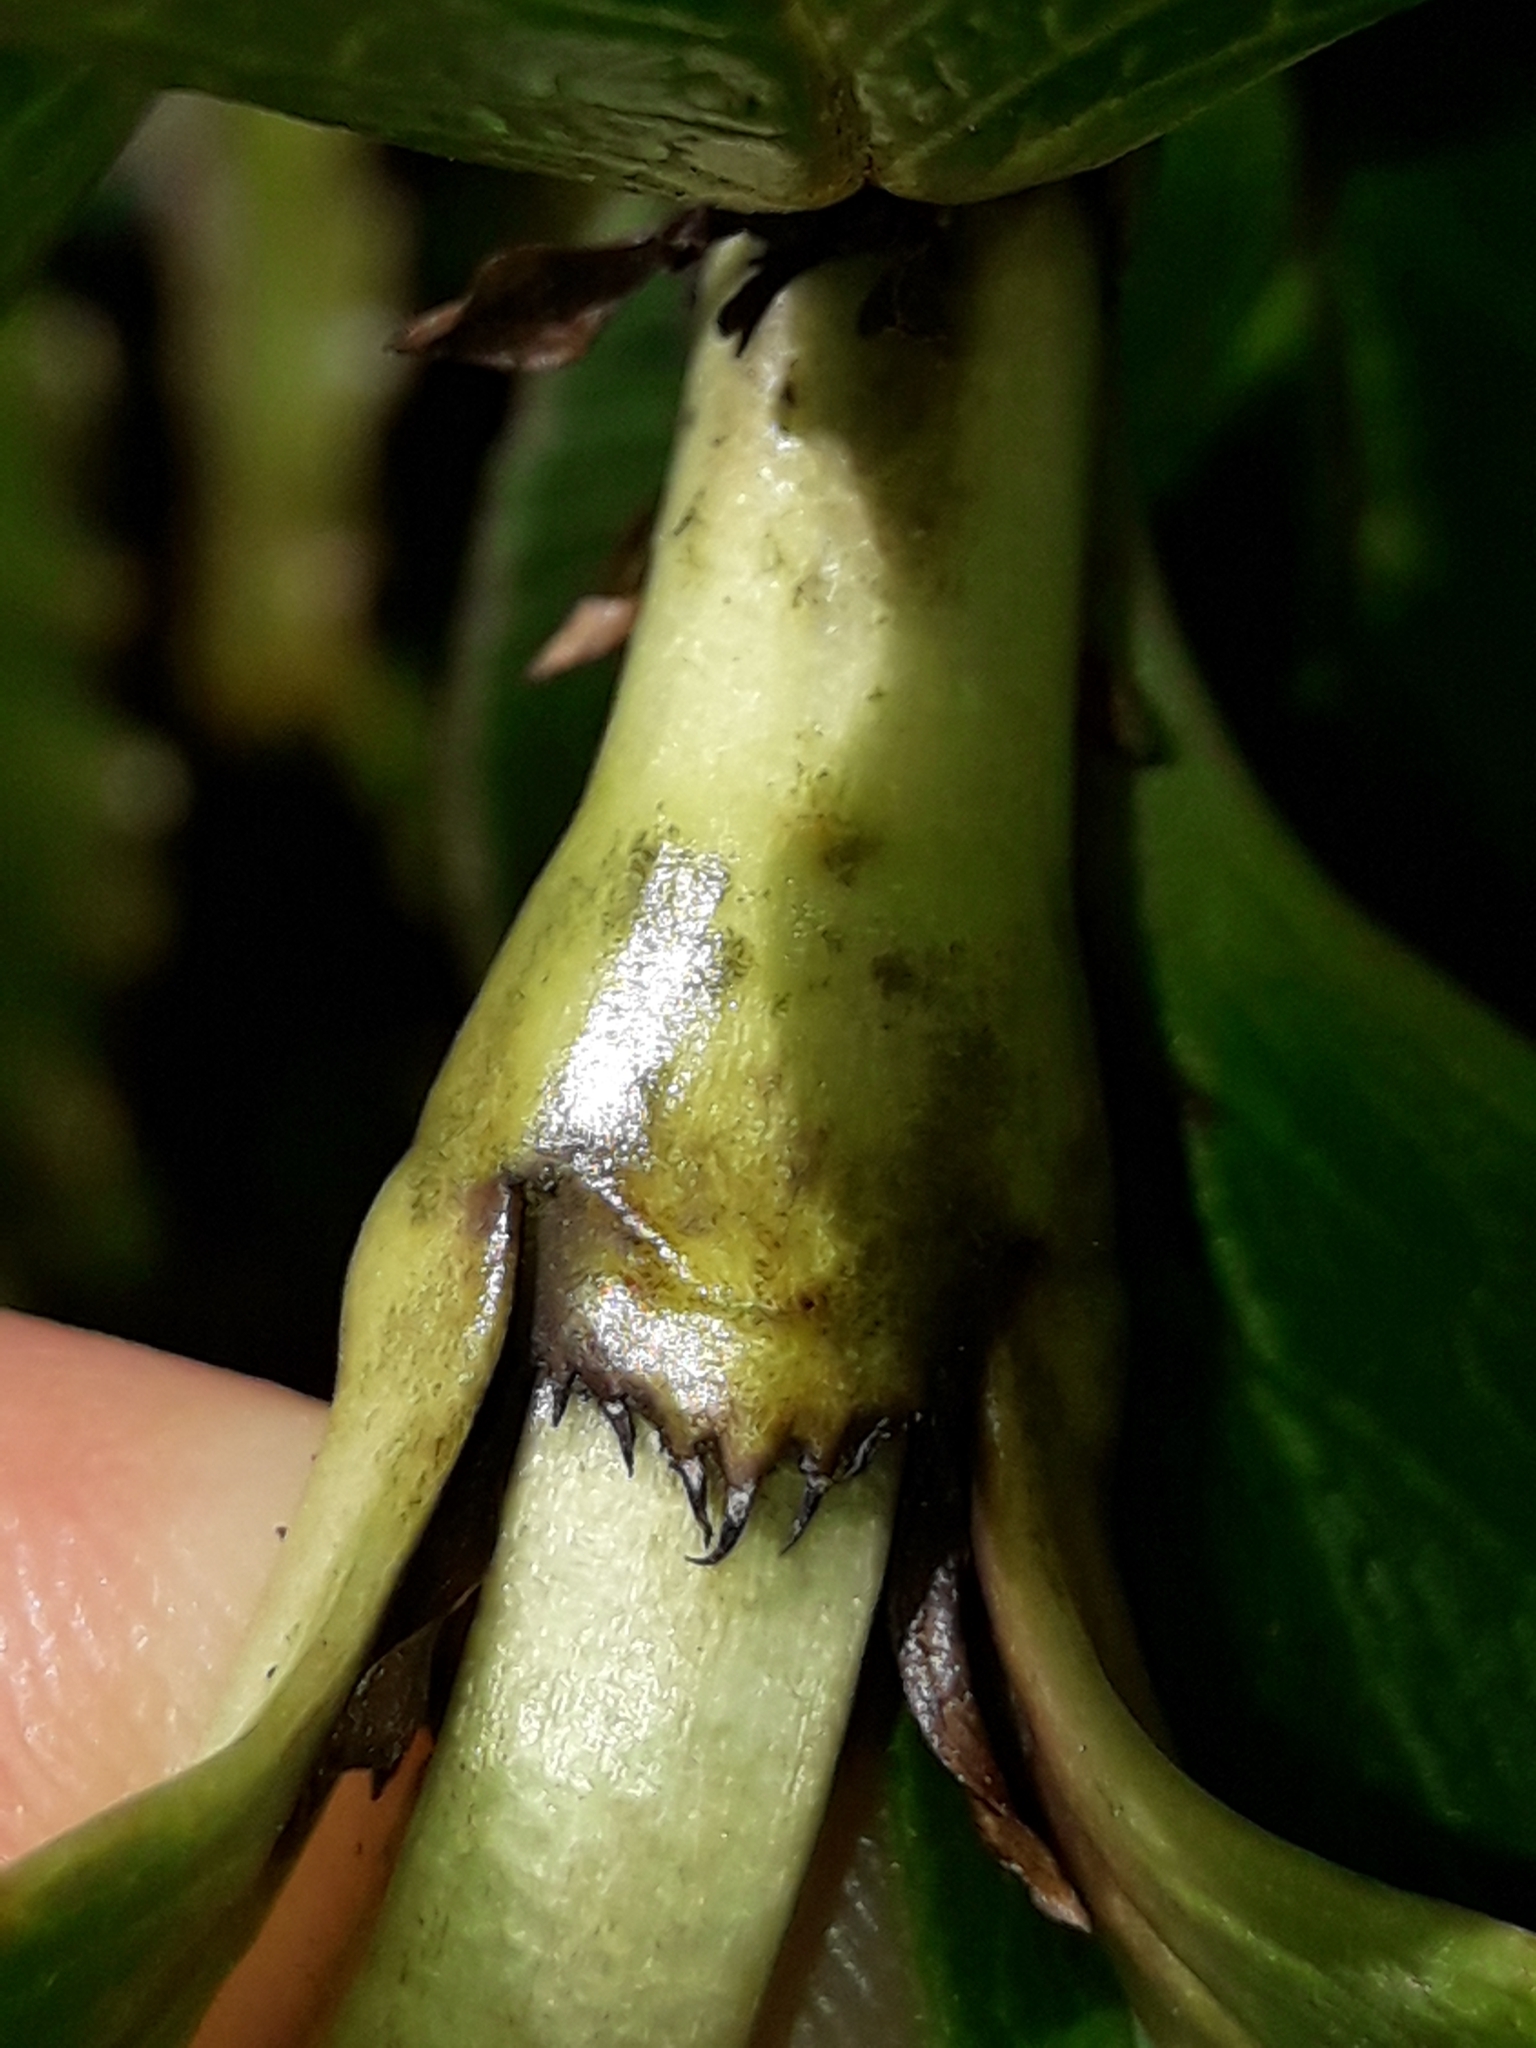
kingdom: Plantae
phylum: Tracheophyta
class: Magnoliopsida
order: Gentianales
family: Rubiaceae
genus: Coprosma
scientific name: Coprosma serrulata
